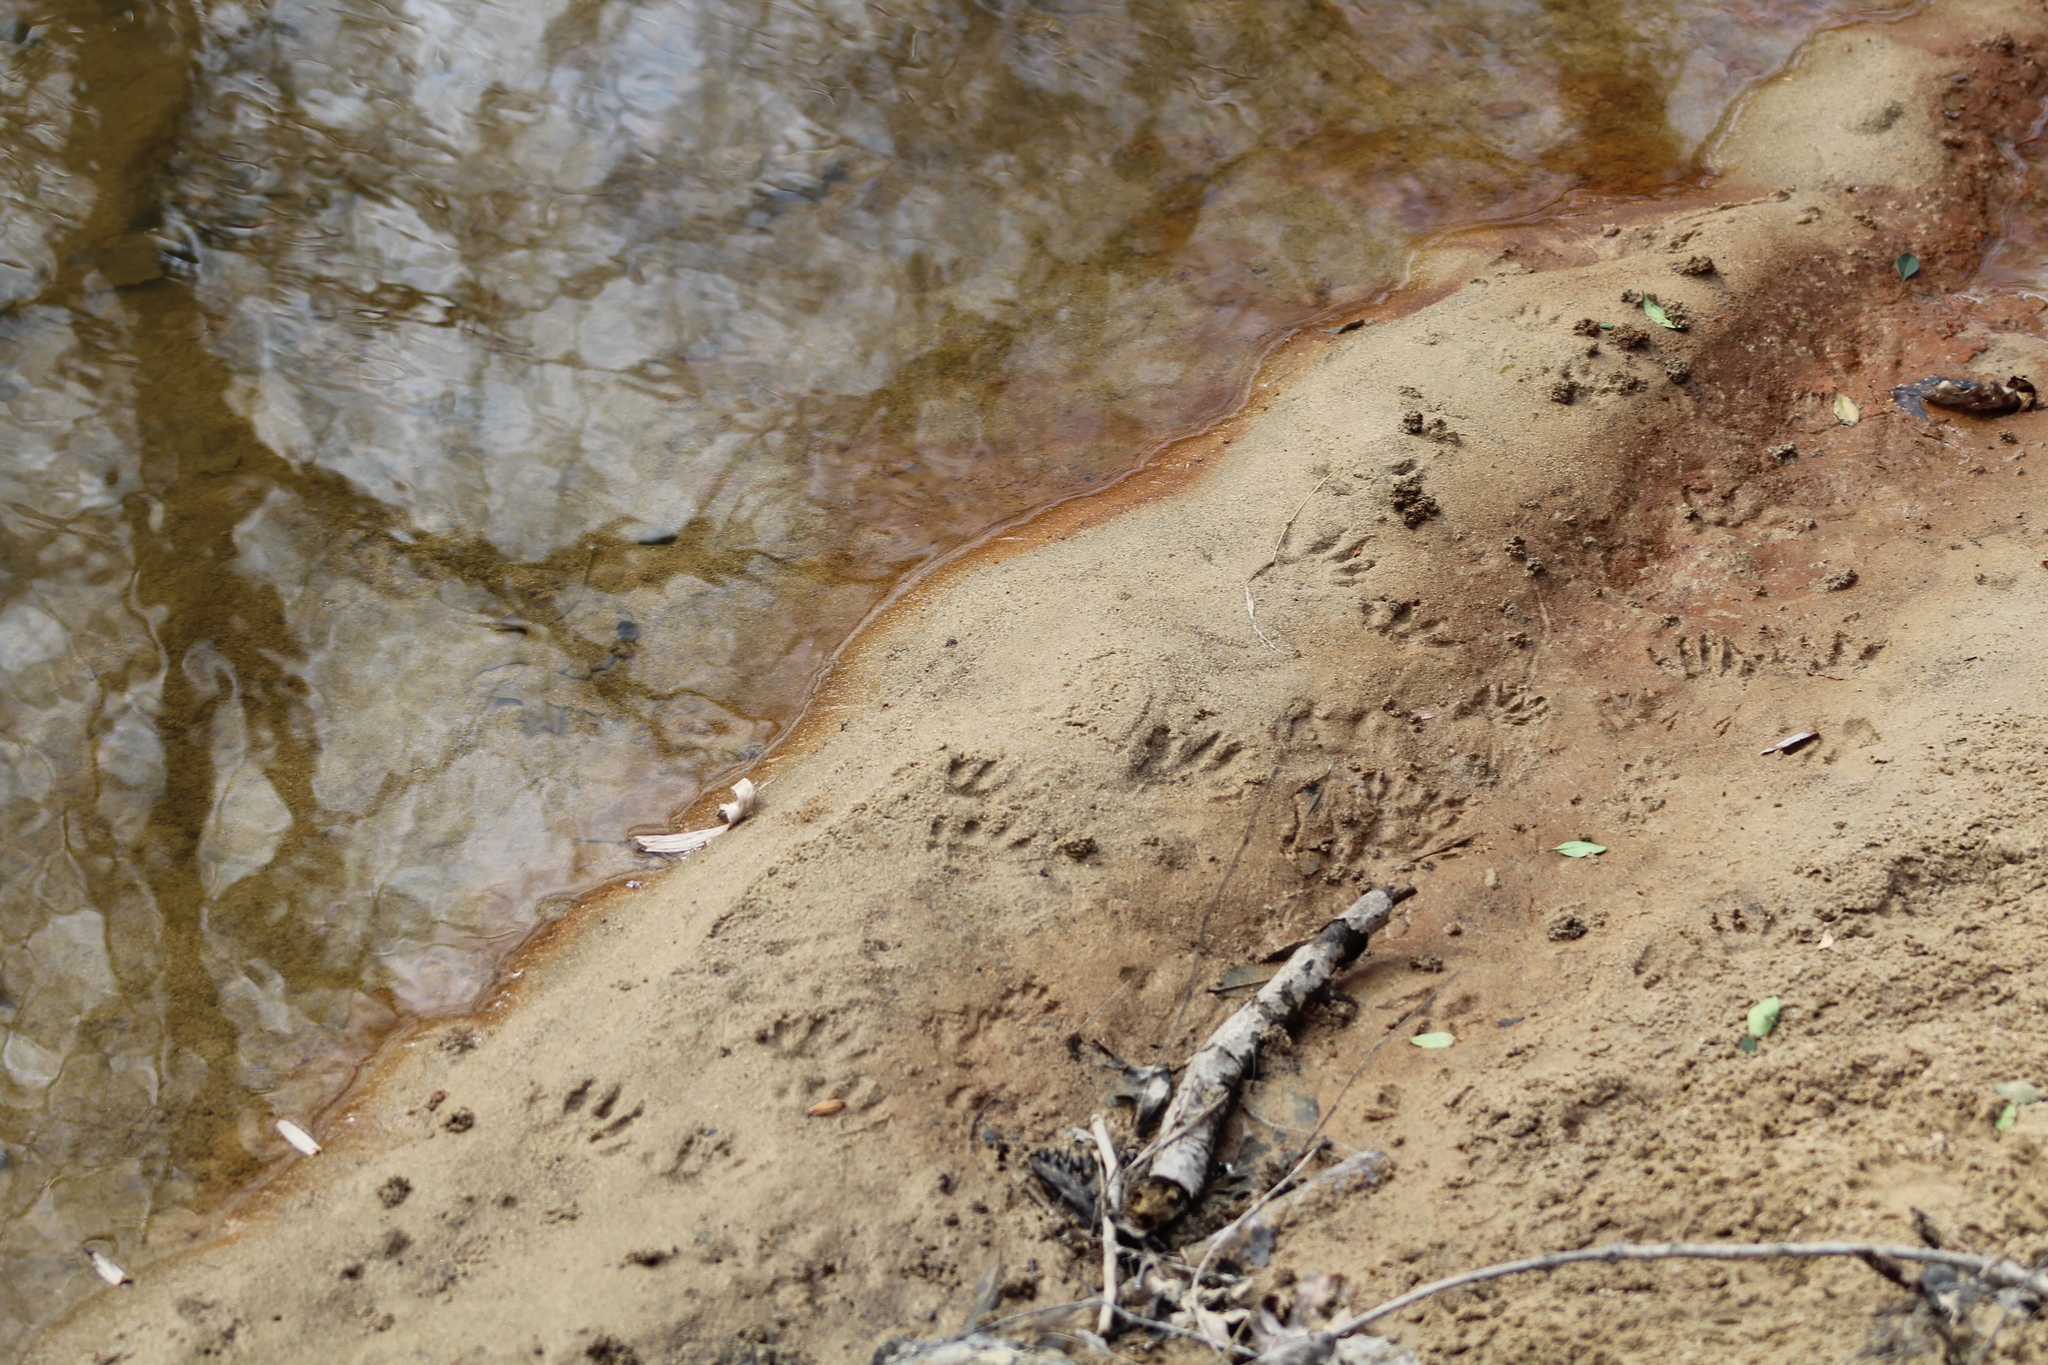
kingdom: Animalia
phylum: Chordata
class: Mammalia
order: Carnivora
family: Procyonidae
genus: Procyon
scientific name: Procyon lotor
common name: Raccoon
